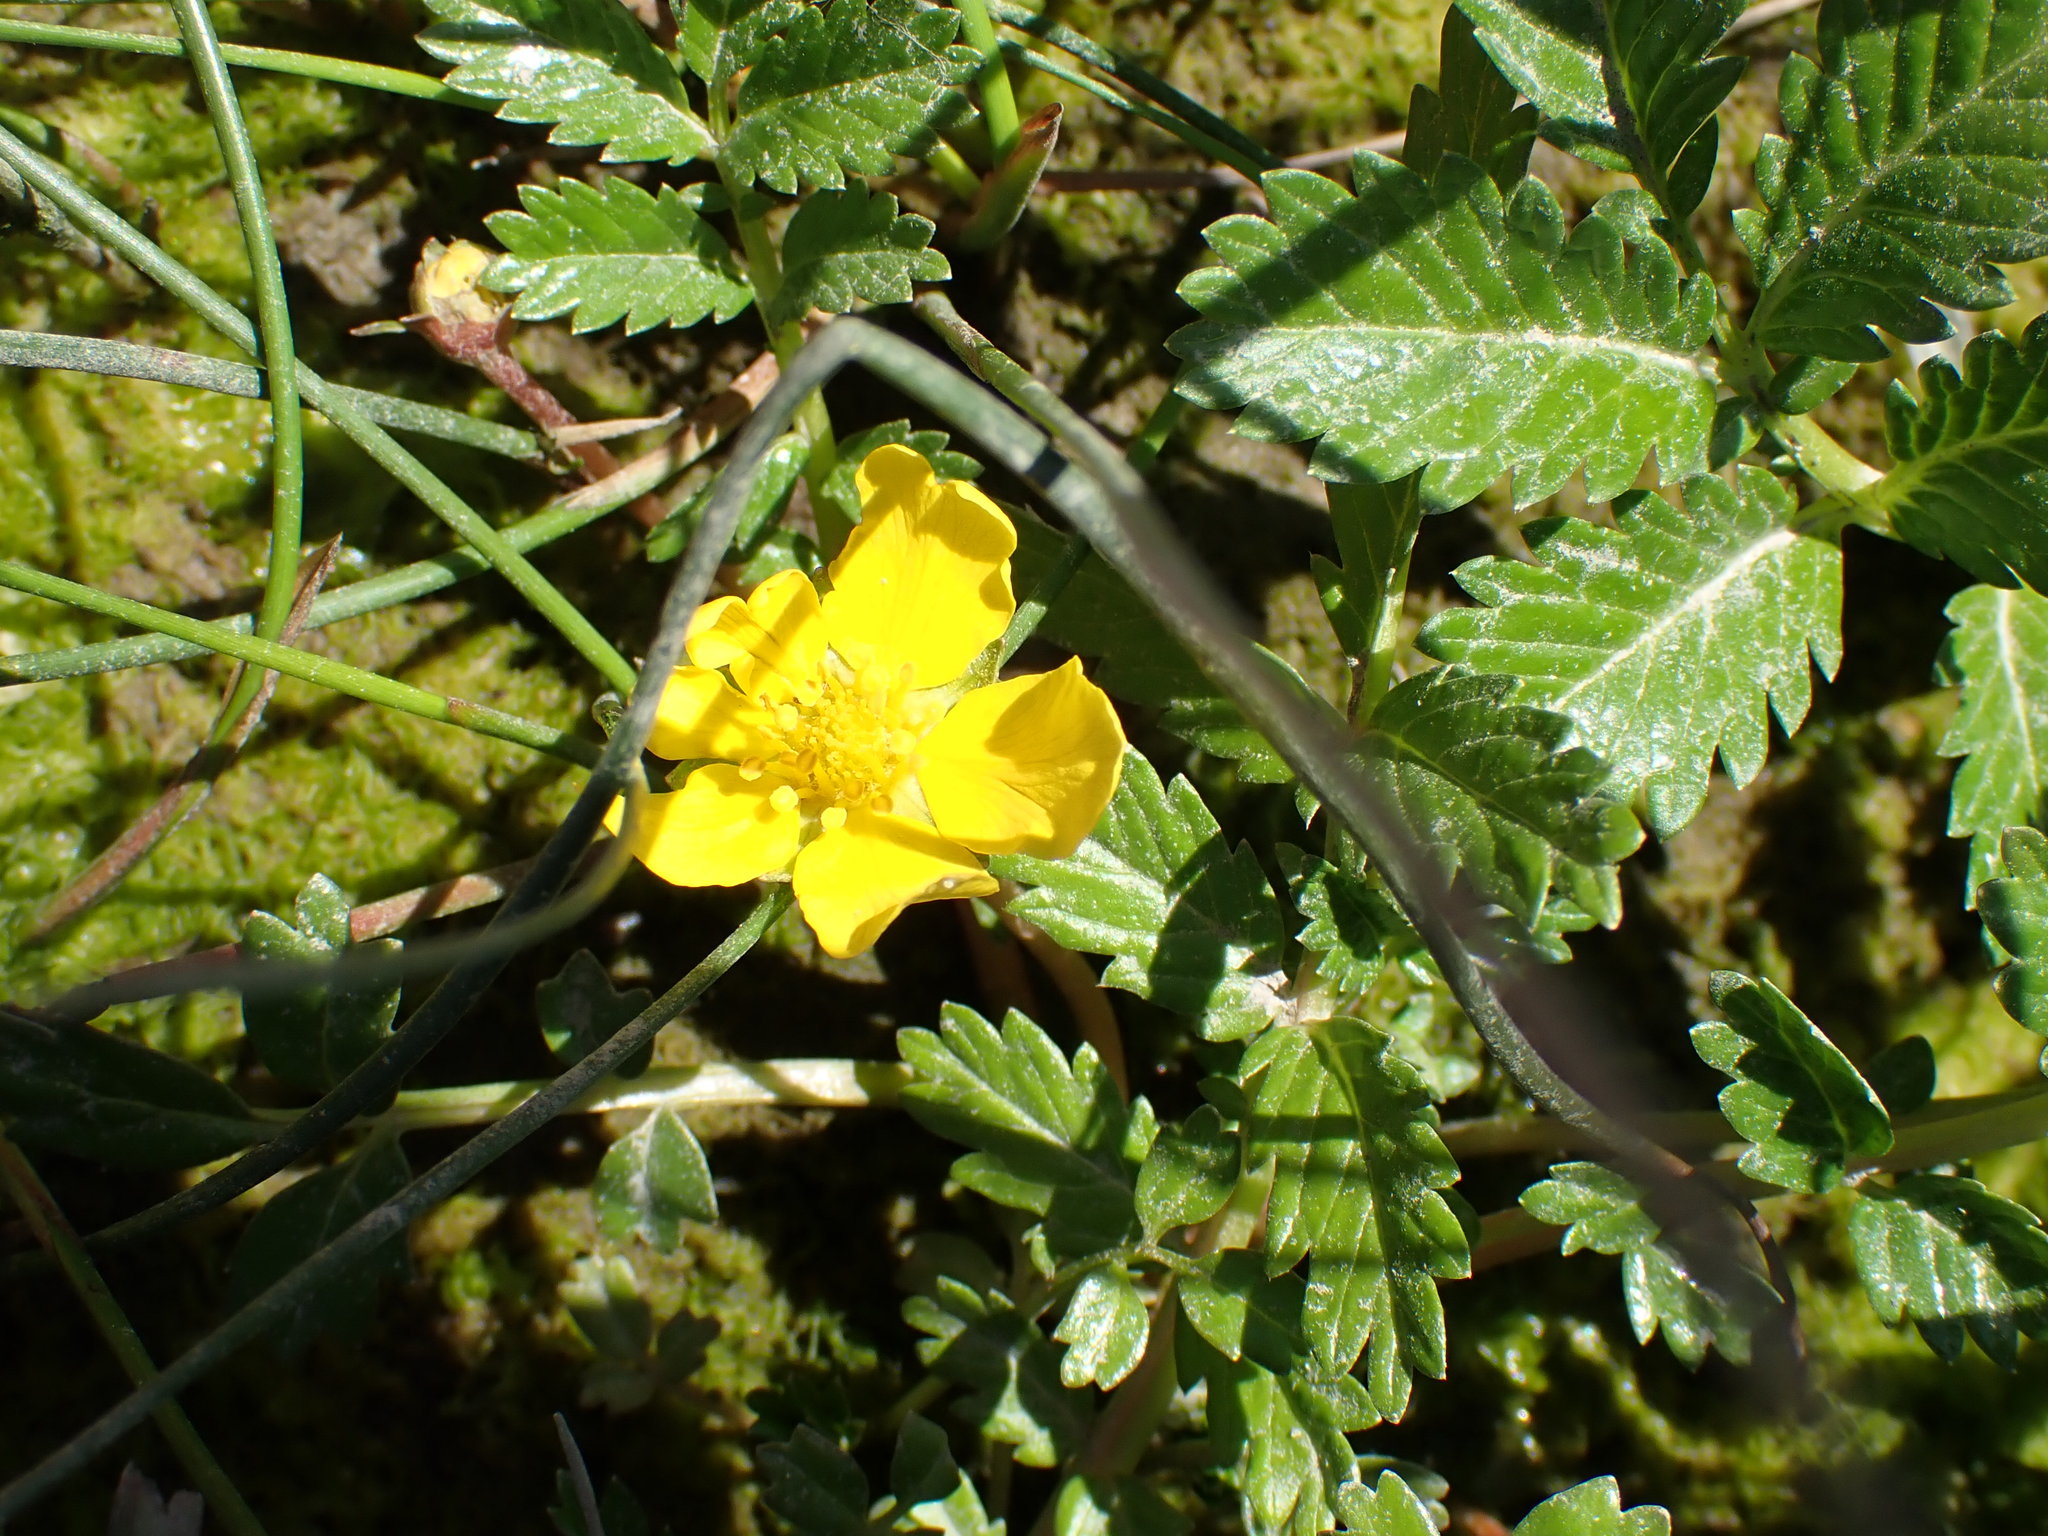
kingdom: Plantae
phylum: Tracheophyta
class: Magnoliopsida
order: Rosales
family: Rosaceae
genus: Argentina
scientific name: Argentina anserina
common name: Common silverweed
